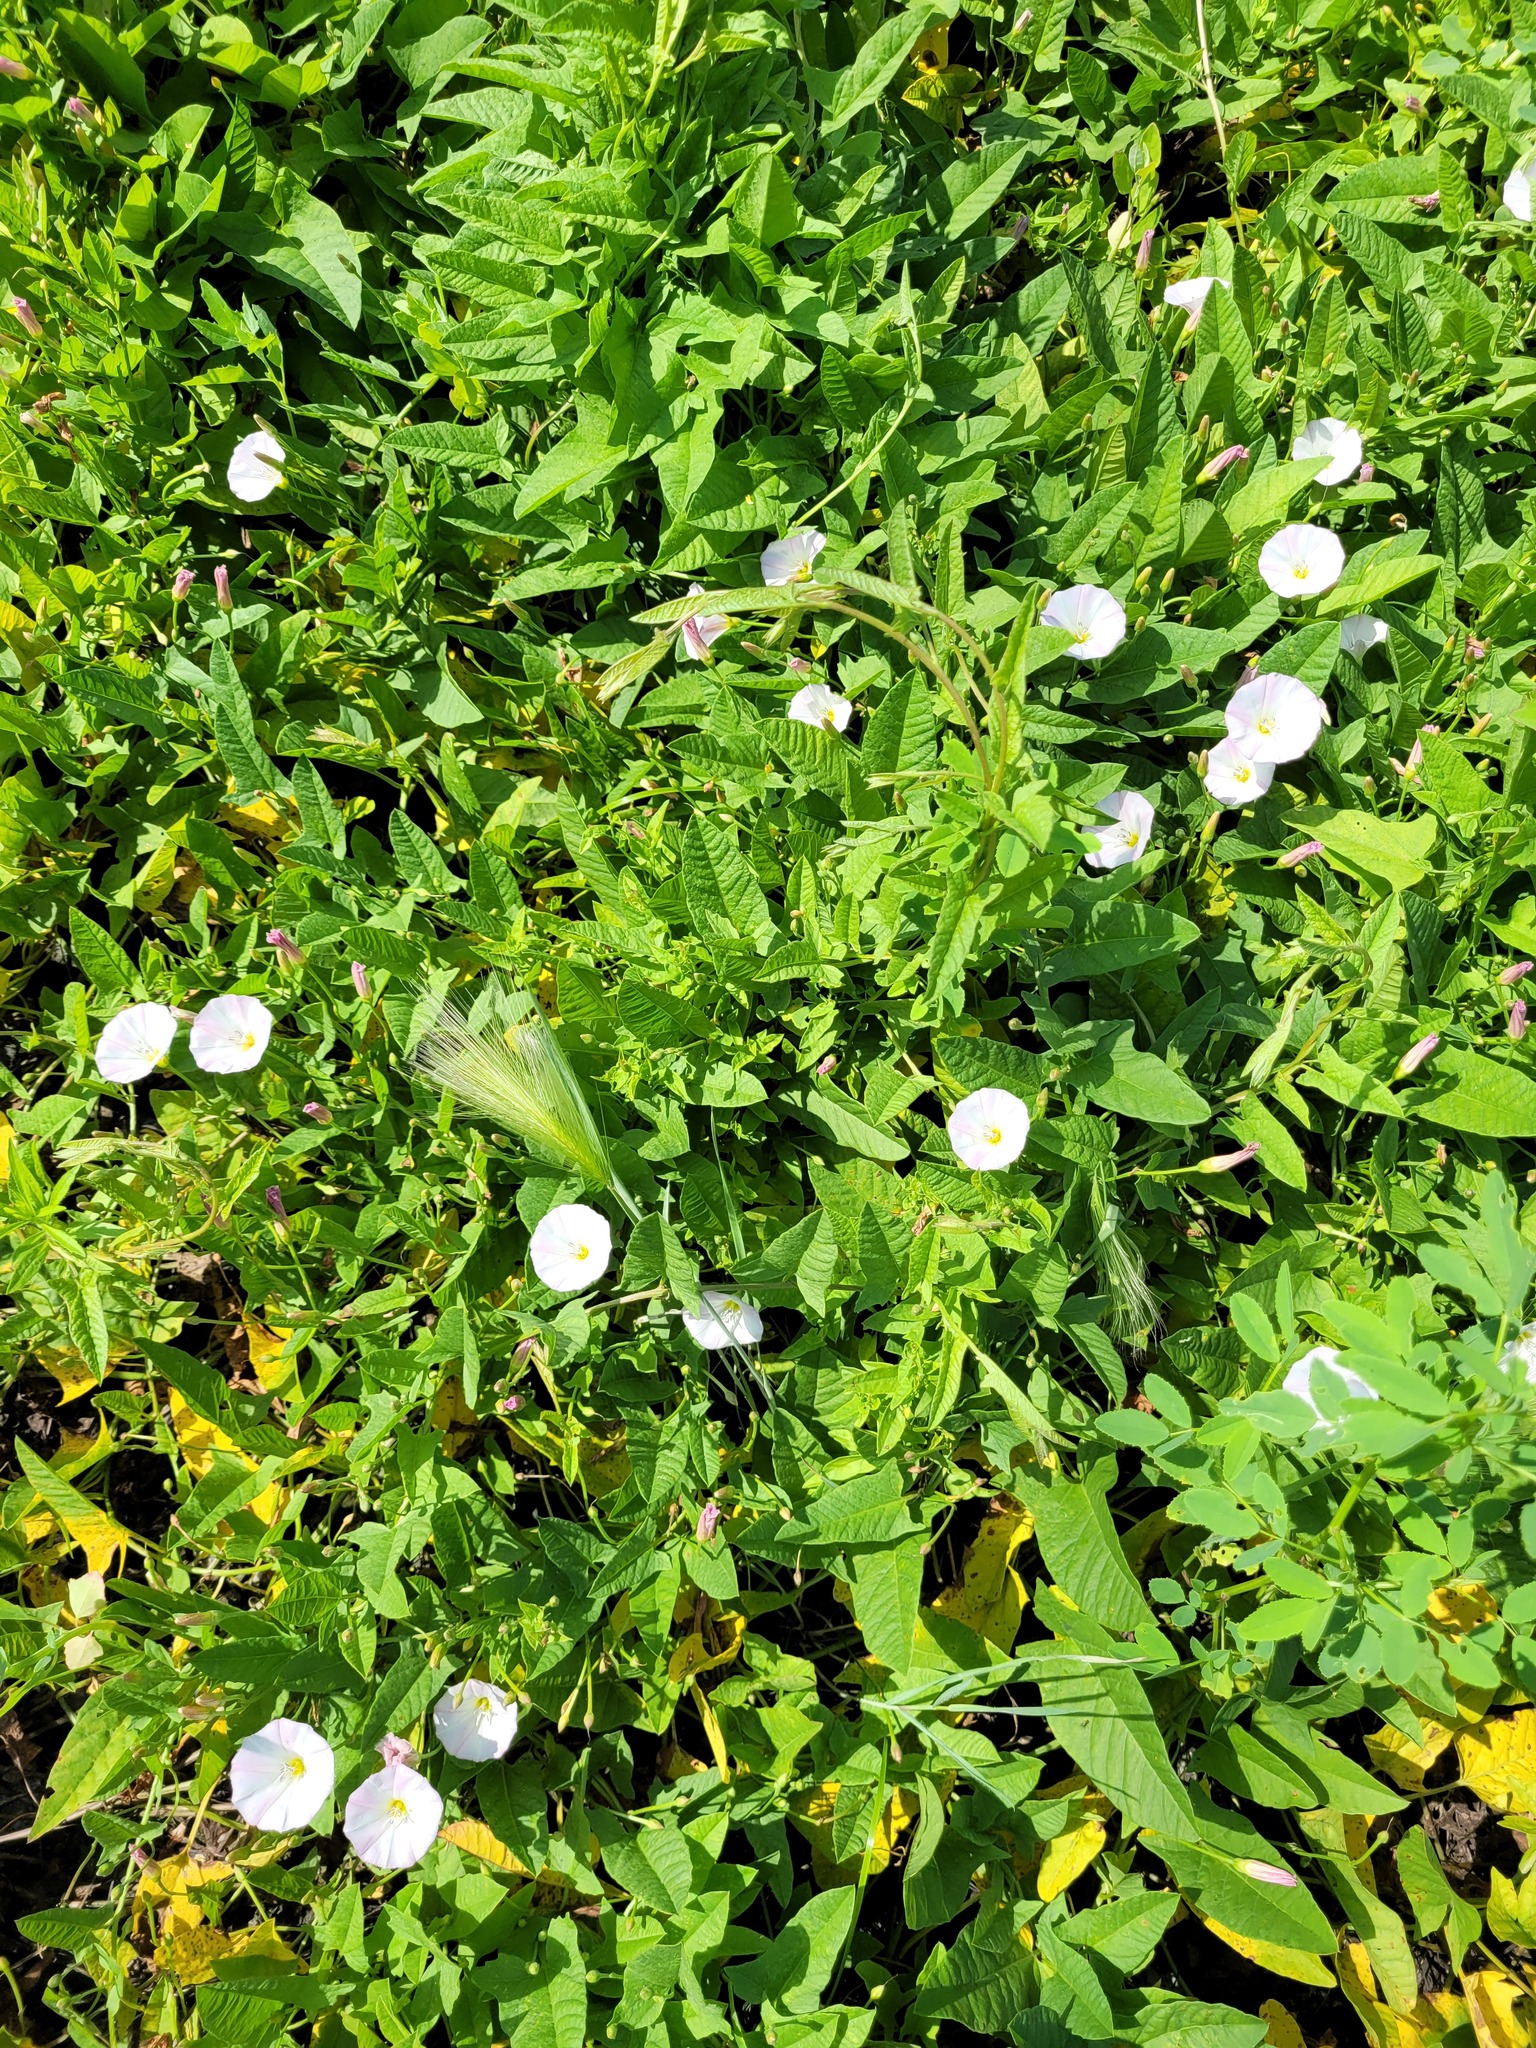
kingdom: Plantae
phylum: Tracheophyta
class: Liliopsida
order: Poales
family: Poaceae
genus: Hordeum
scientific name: Hordeum jubatum
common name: Foxtail barley
